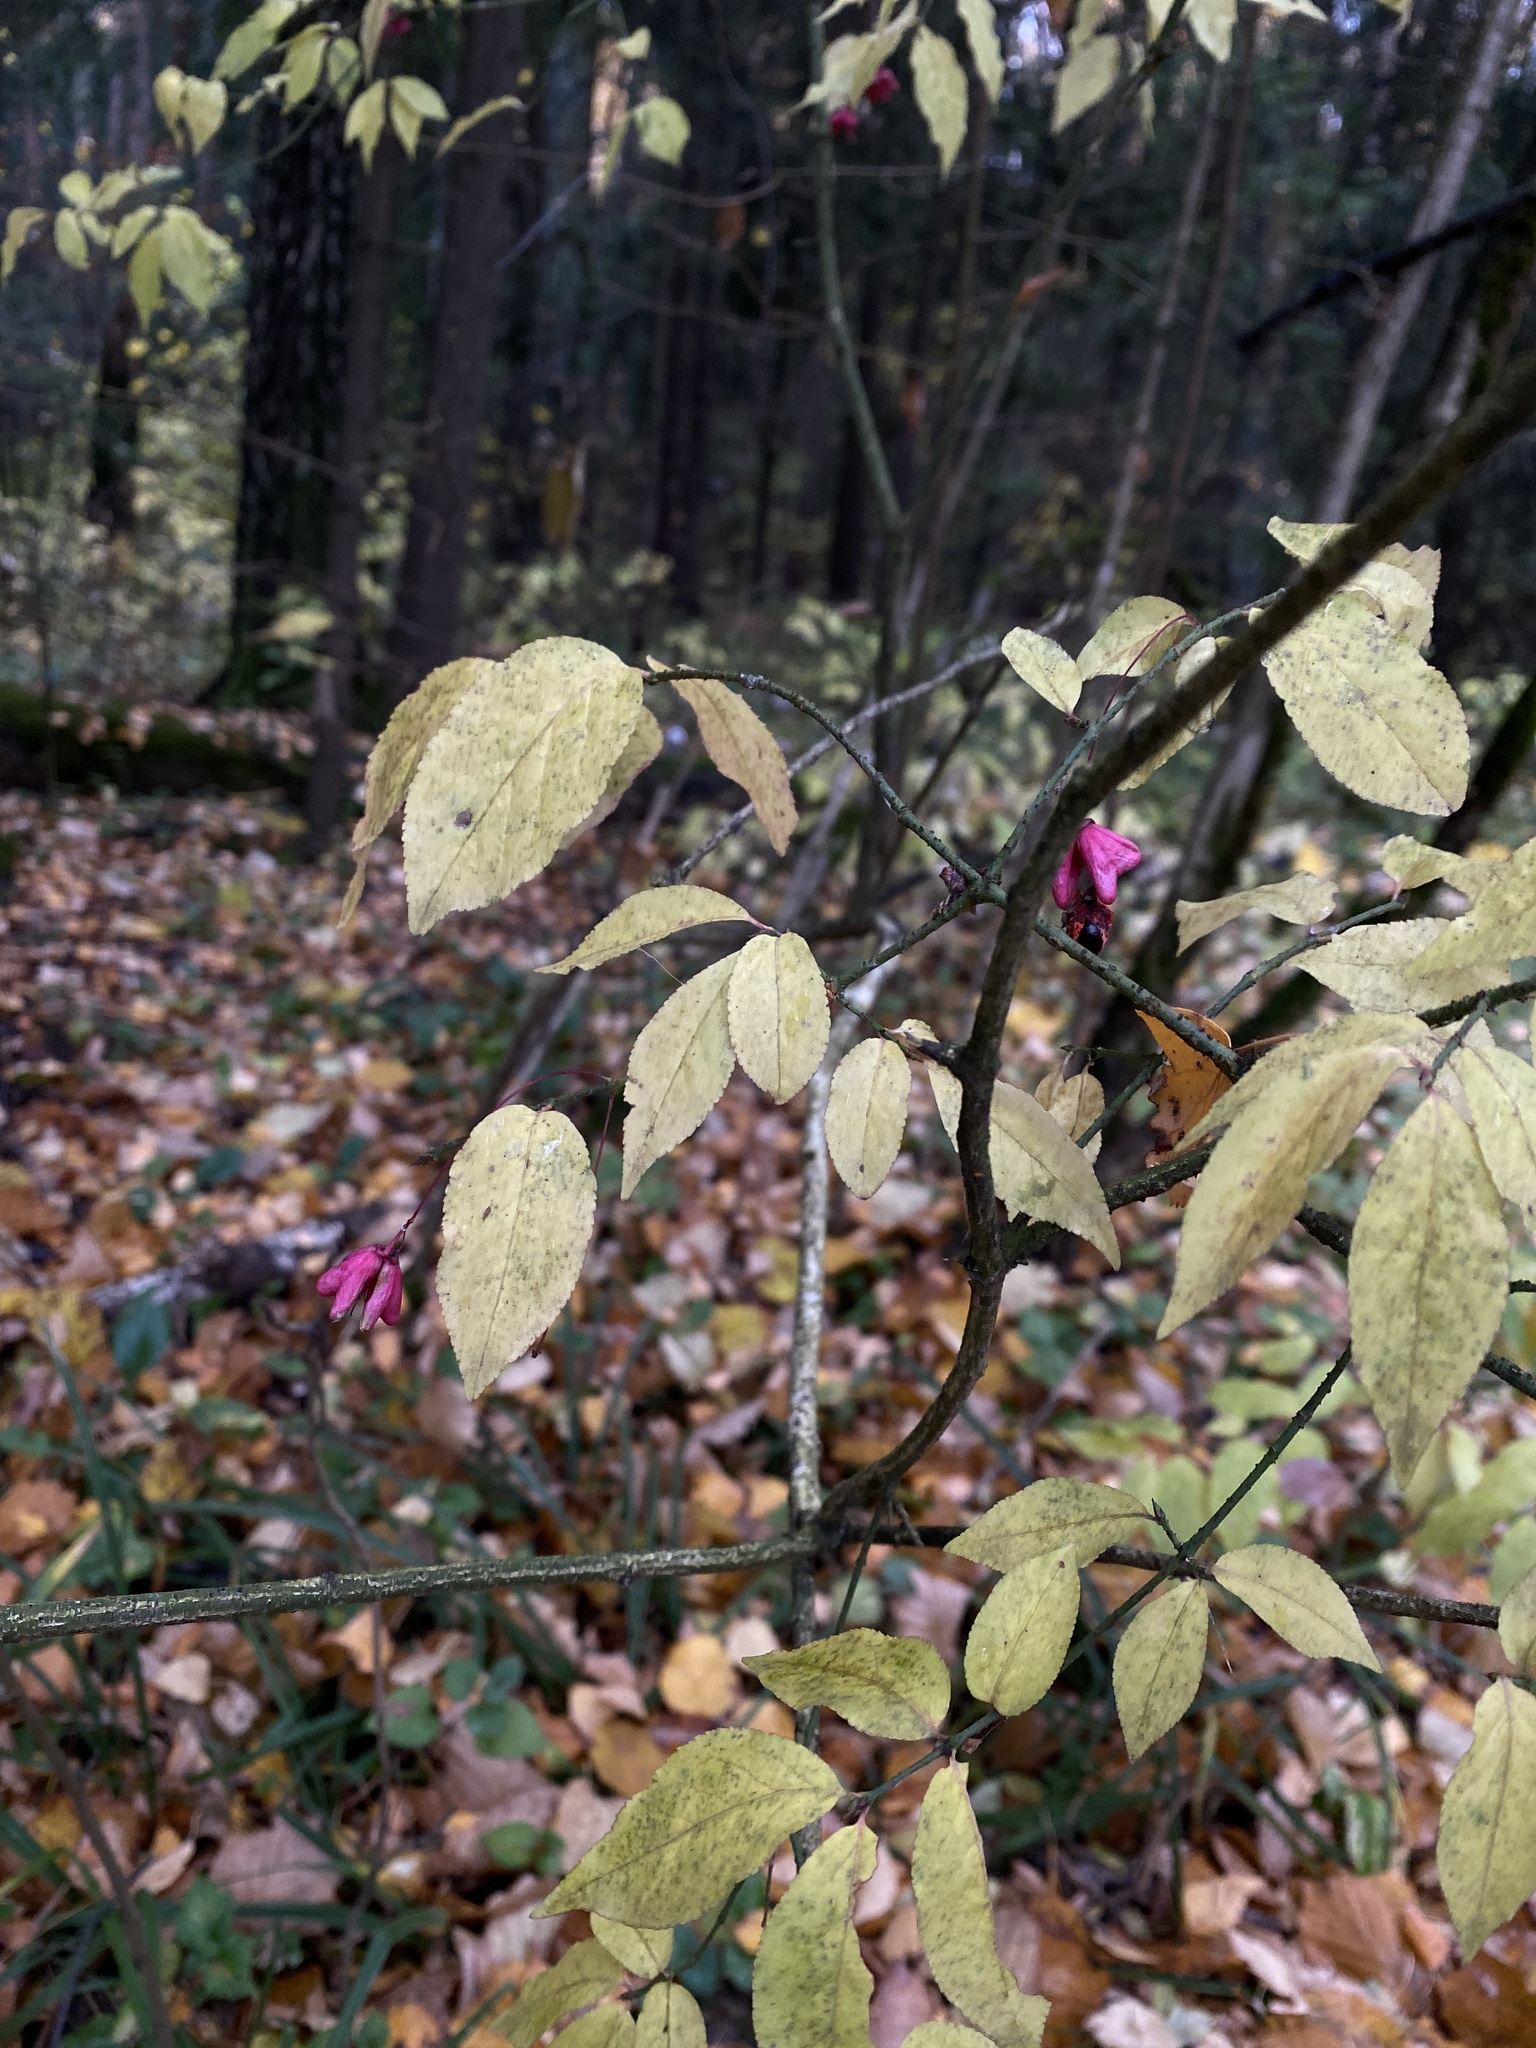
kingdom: Plantae
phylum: Tracheophyta
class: Magnoliopsida
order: Celastrales
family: Celastraceae
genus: Euonymus
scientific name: Euonymus verrucosus
